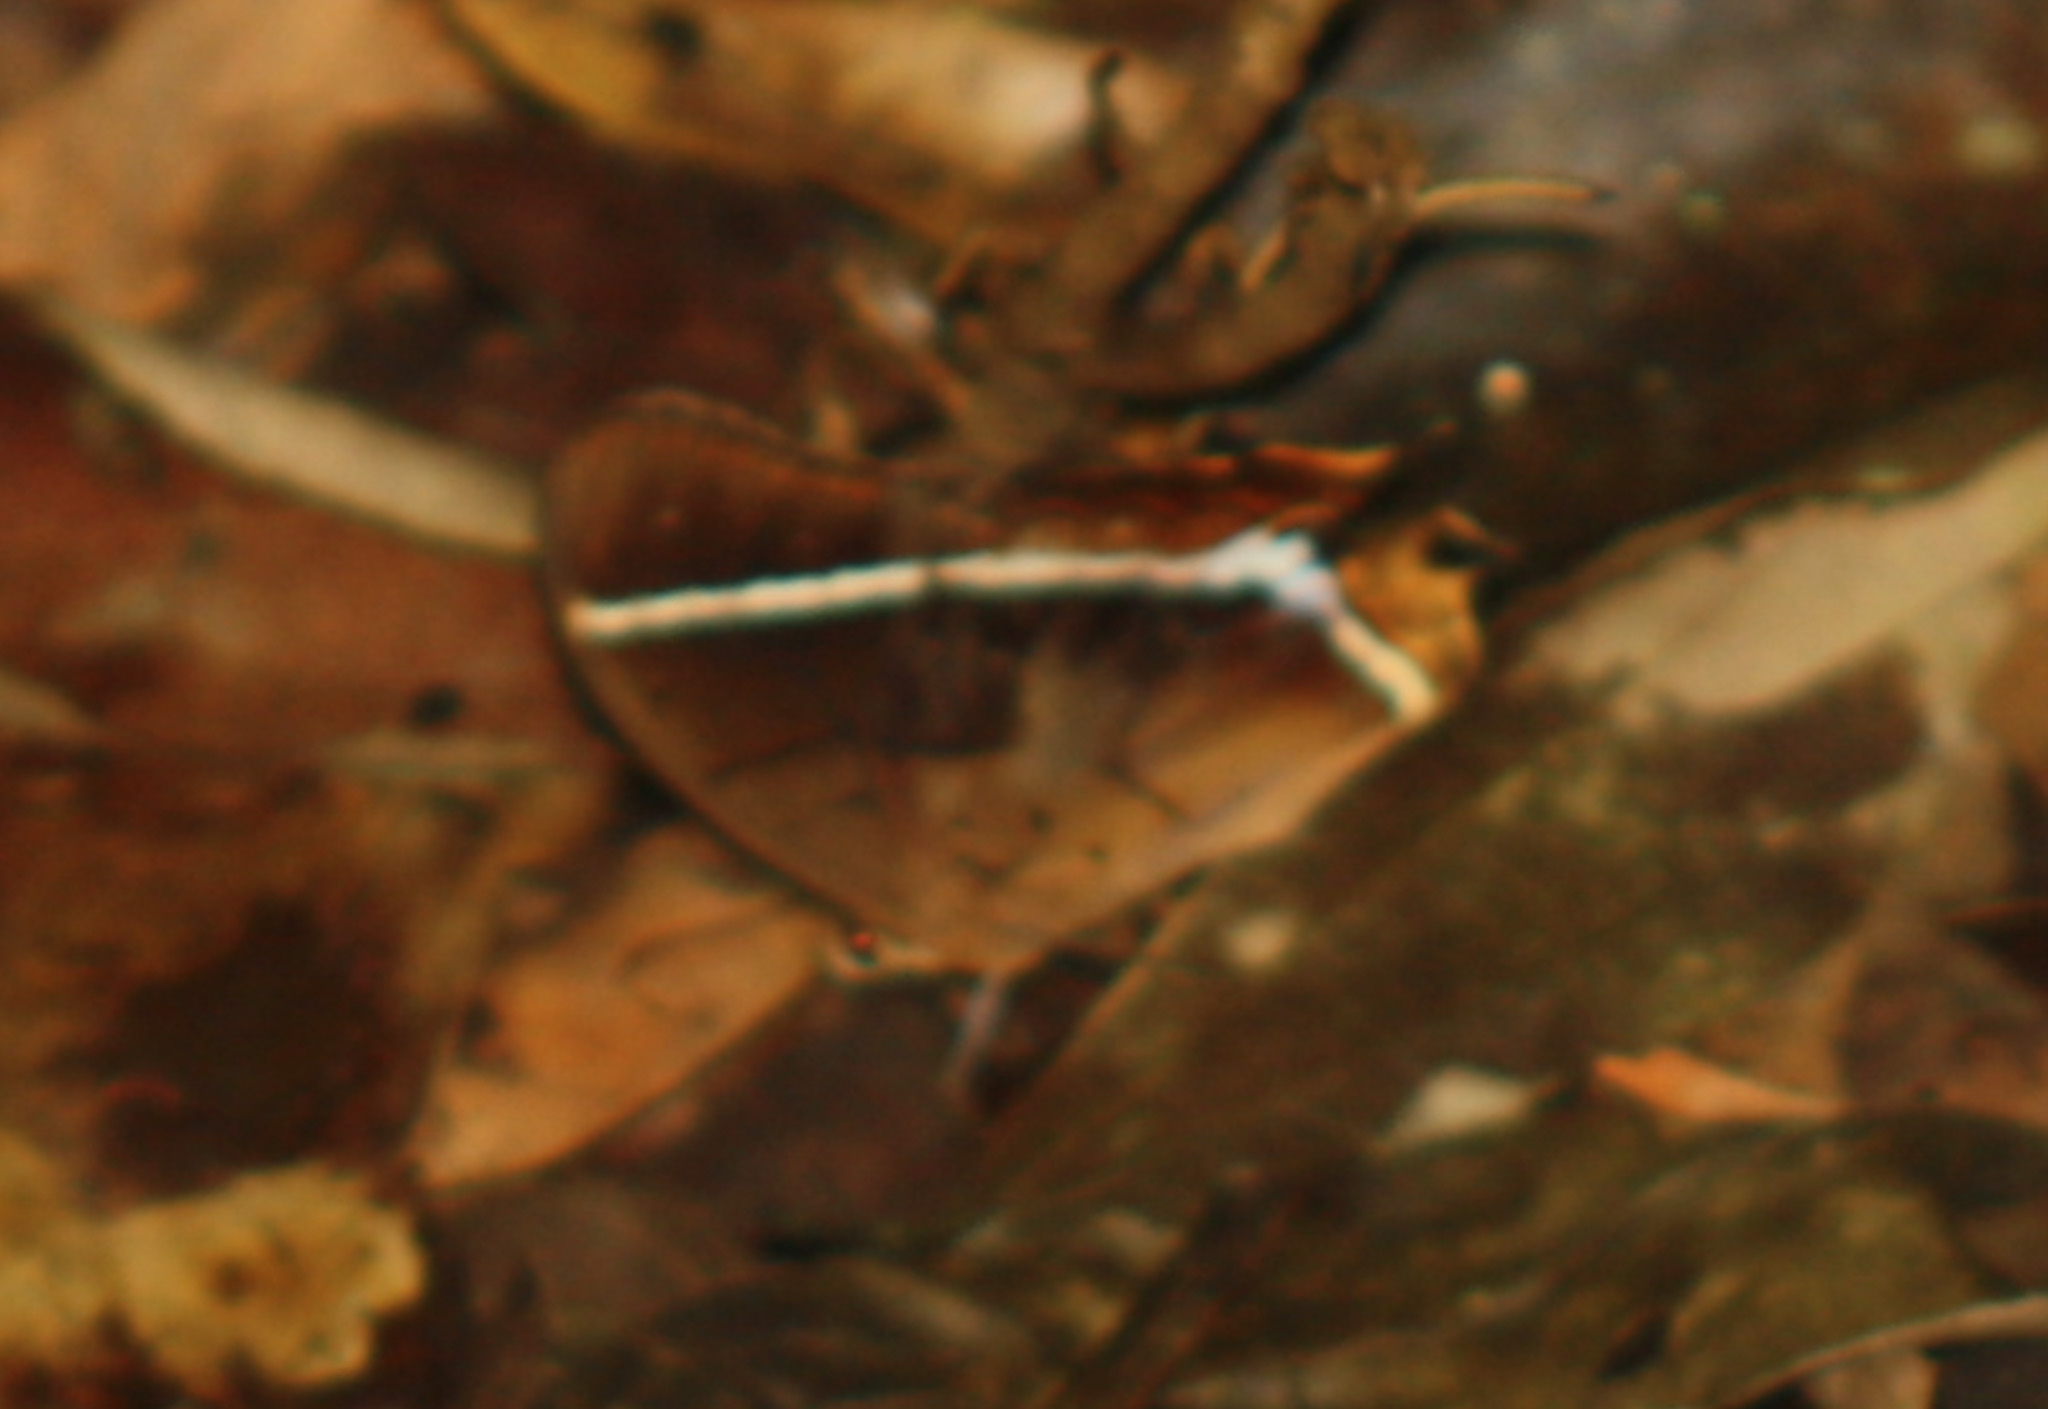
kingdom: Animalia
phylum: Arthropoda
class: Insecta
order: Lepidoptera
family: Nymphalidae
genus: Antirrhea
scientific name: Antirrhea philaretes
